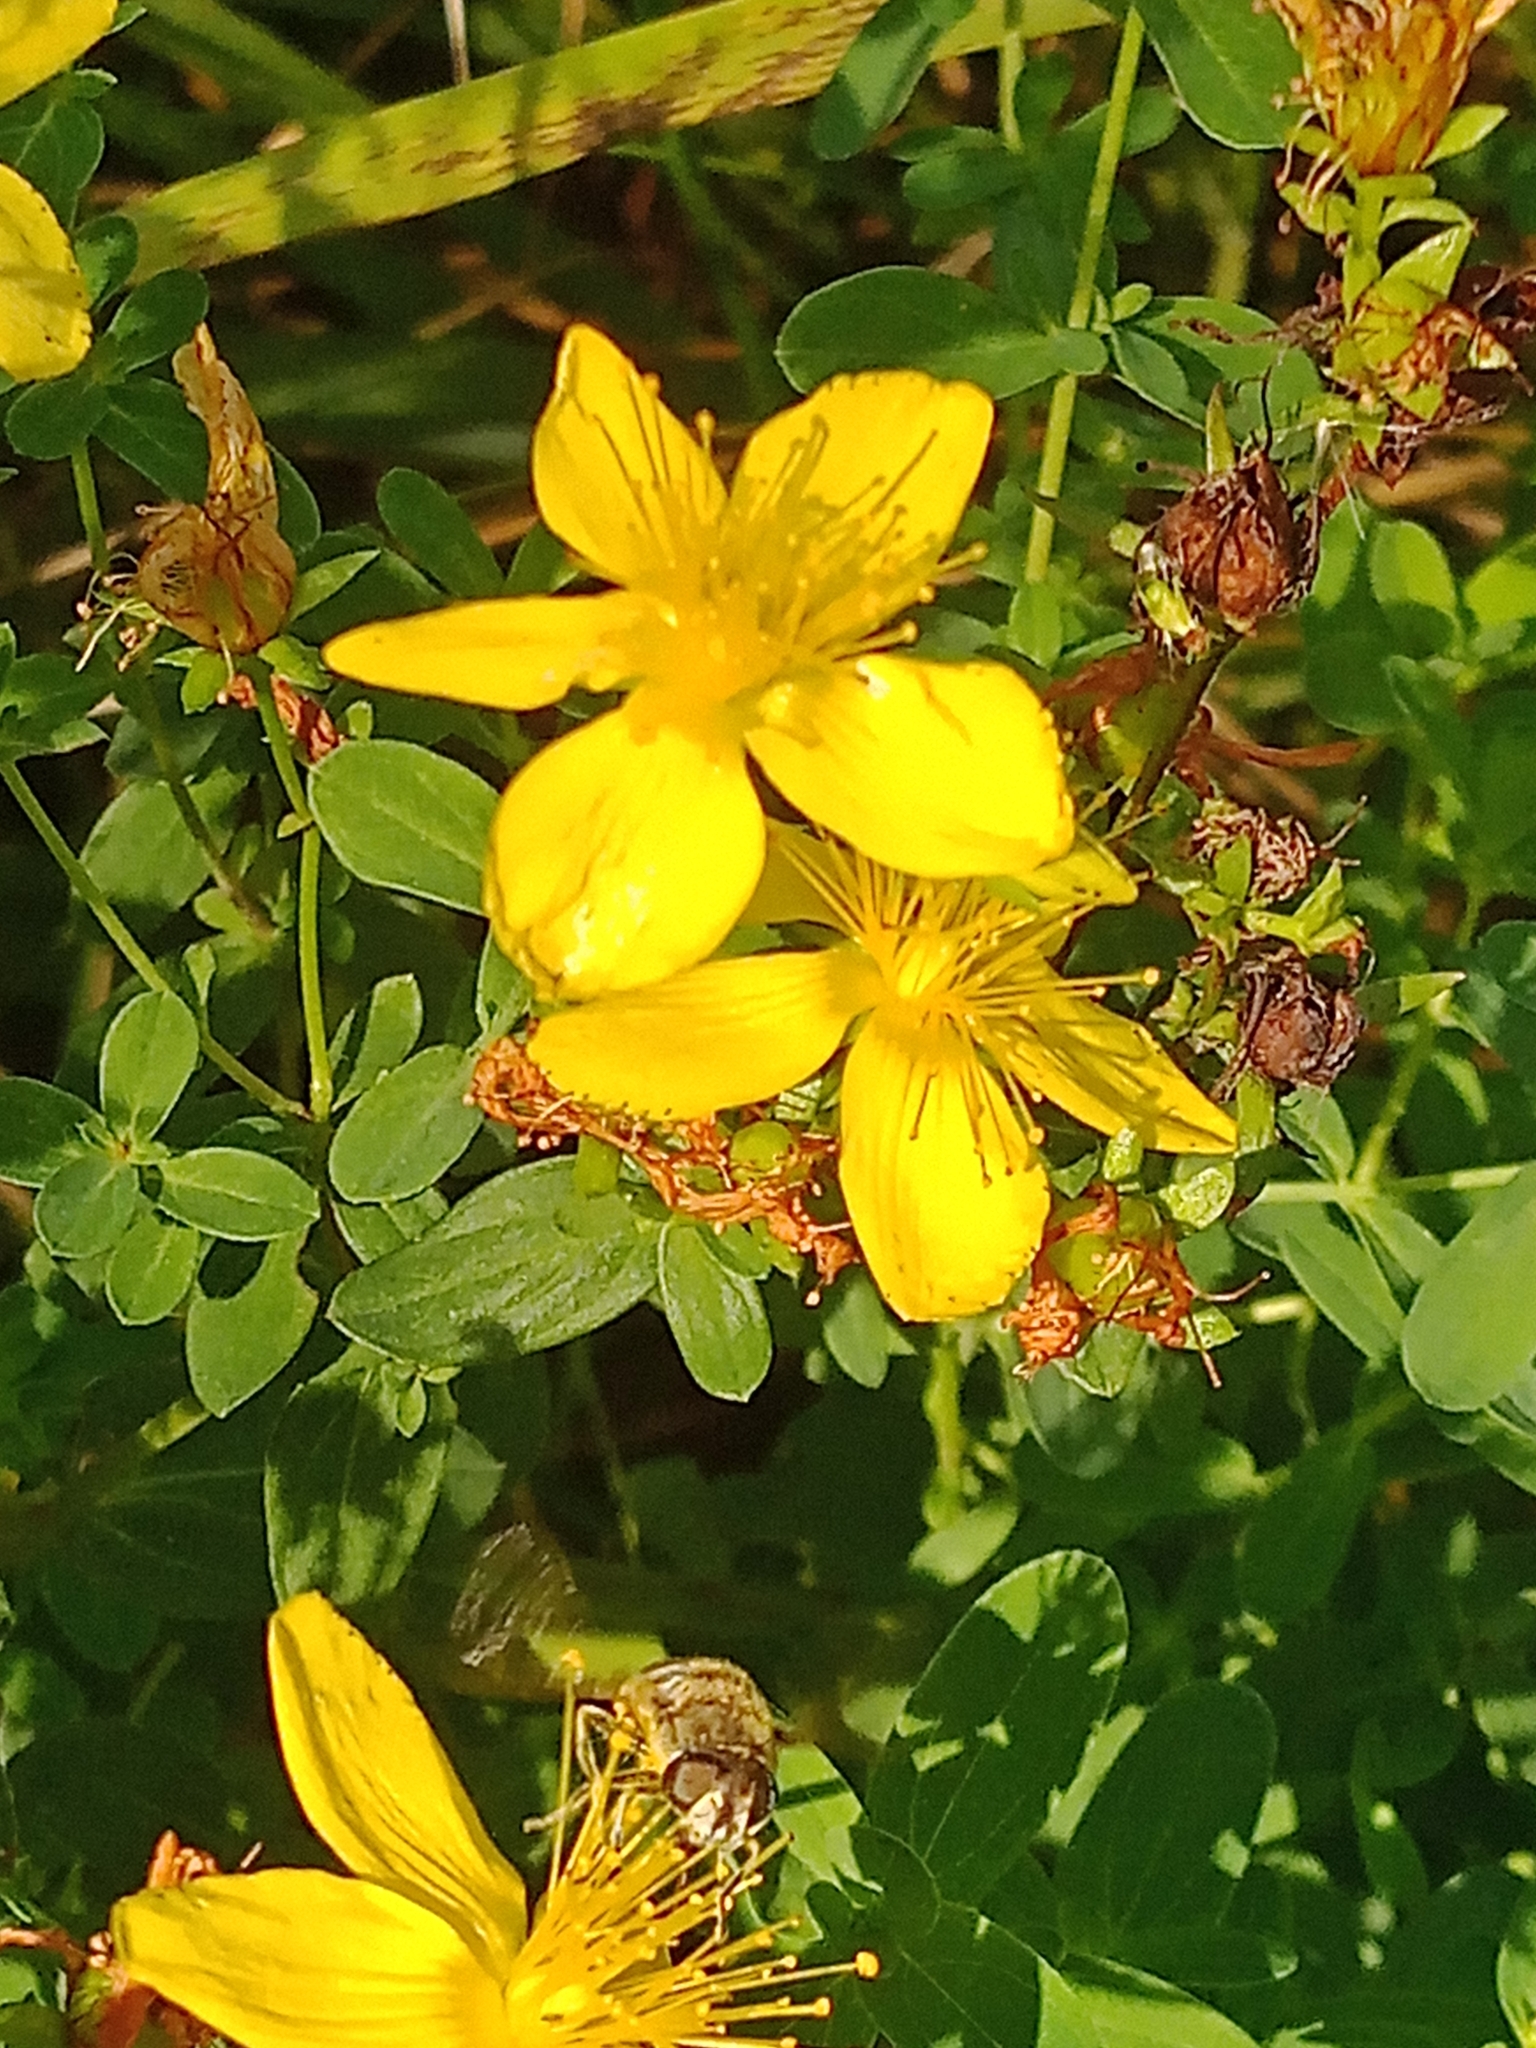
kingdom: Plantae
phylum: Tracheophyta
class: Magnoliopsida
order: Malpighiales
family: Hypericaceae
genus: Hypericum
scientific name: Hypericum perforatum
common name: Common st. johnswort
